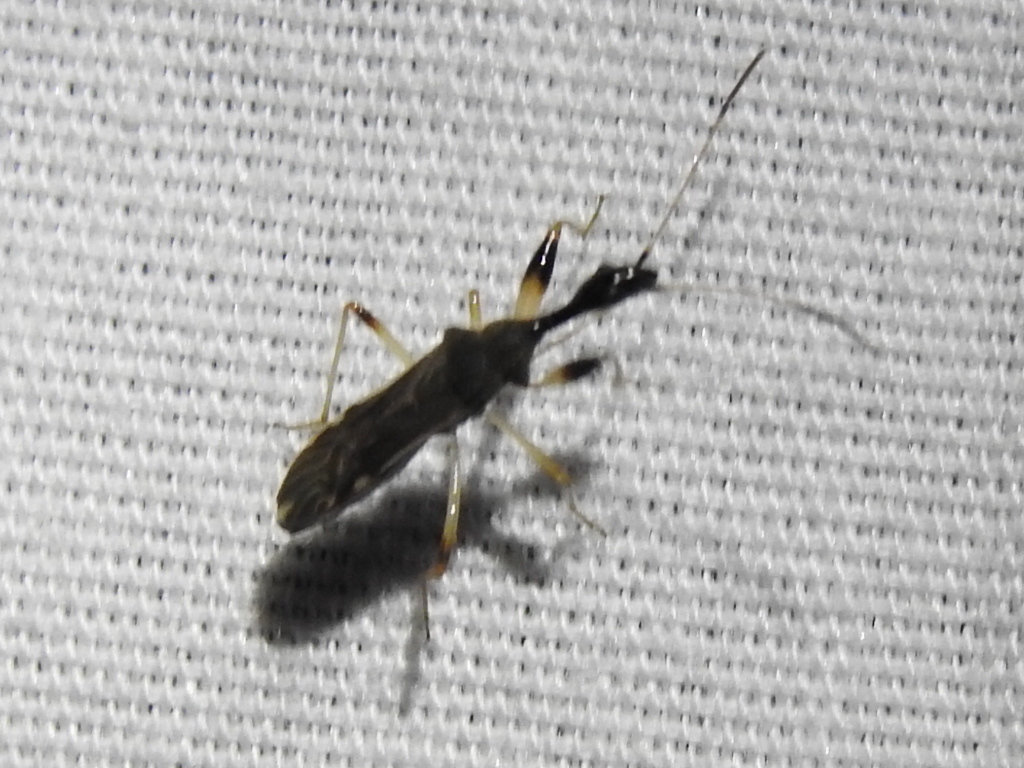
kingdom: Animalia
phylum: Arthropoda
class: Insecta
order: Hemiptera
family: Rhyparochromidae
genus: Myodocha
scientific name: Myodocha serripes
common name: Long-necked seed bug
